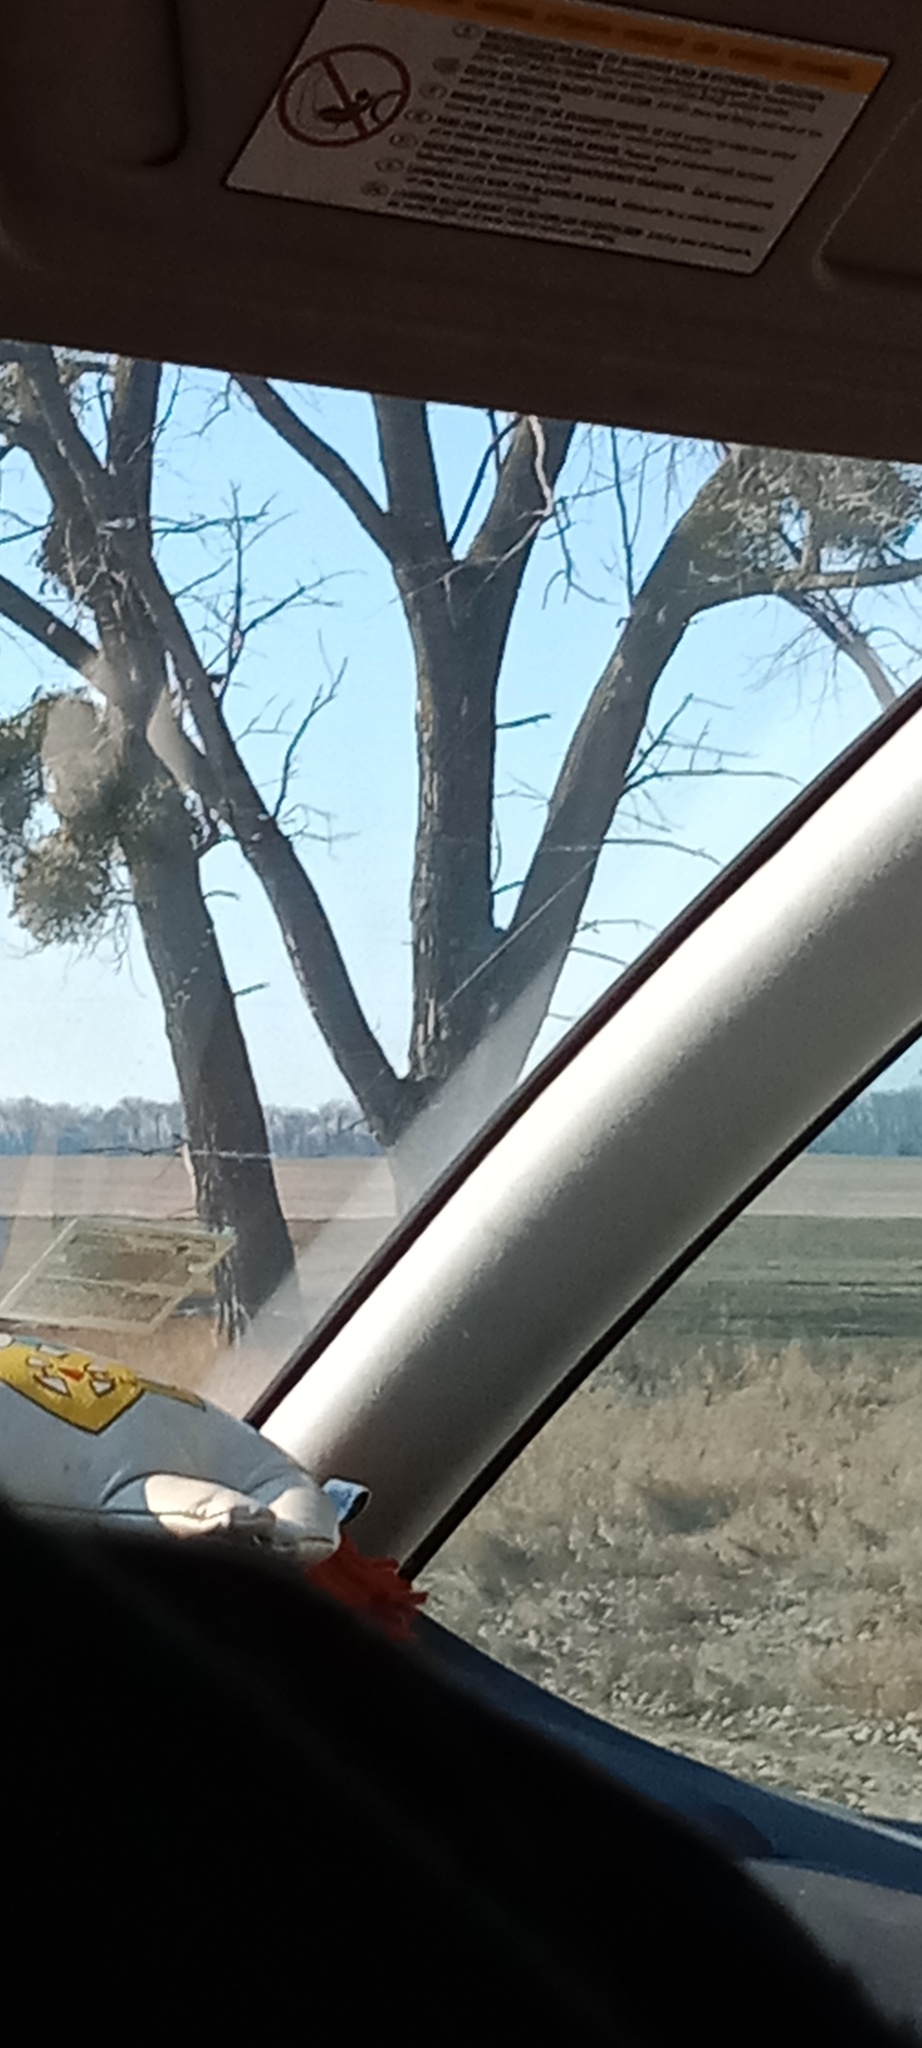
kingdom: Plantae
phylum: Tracheophyta
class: Magnoliopsida
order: Santalales
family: Viscaceae
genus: Viscum
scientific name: Viscum album
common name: Mistletoe
